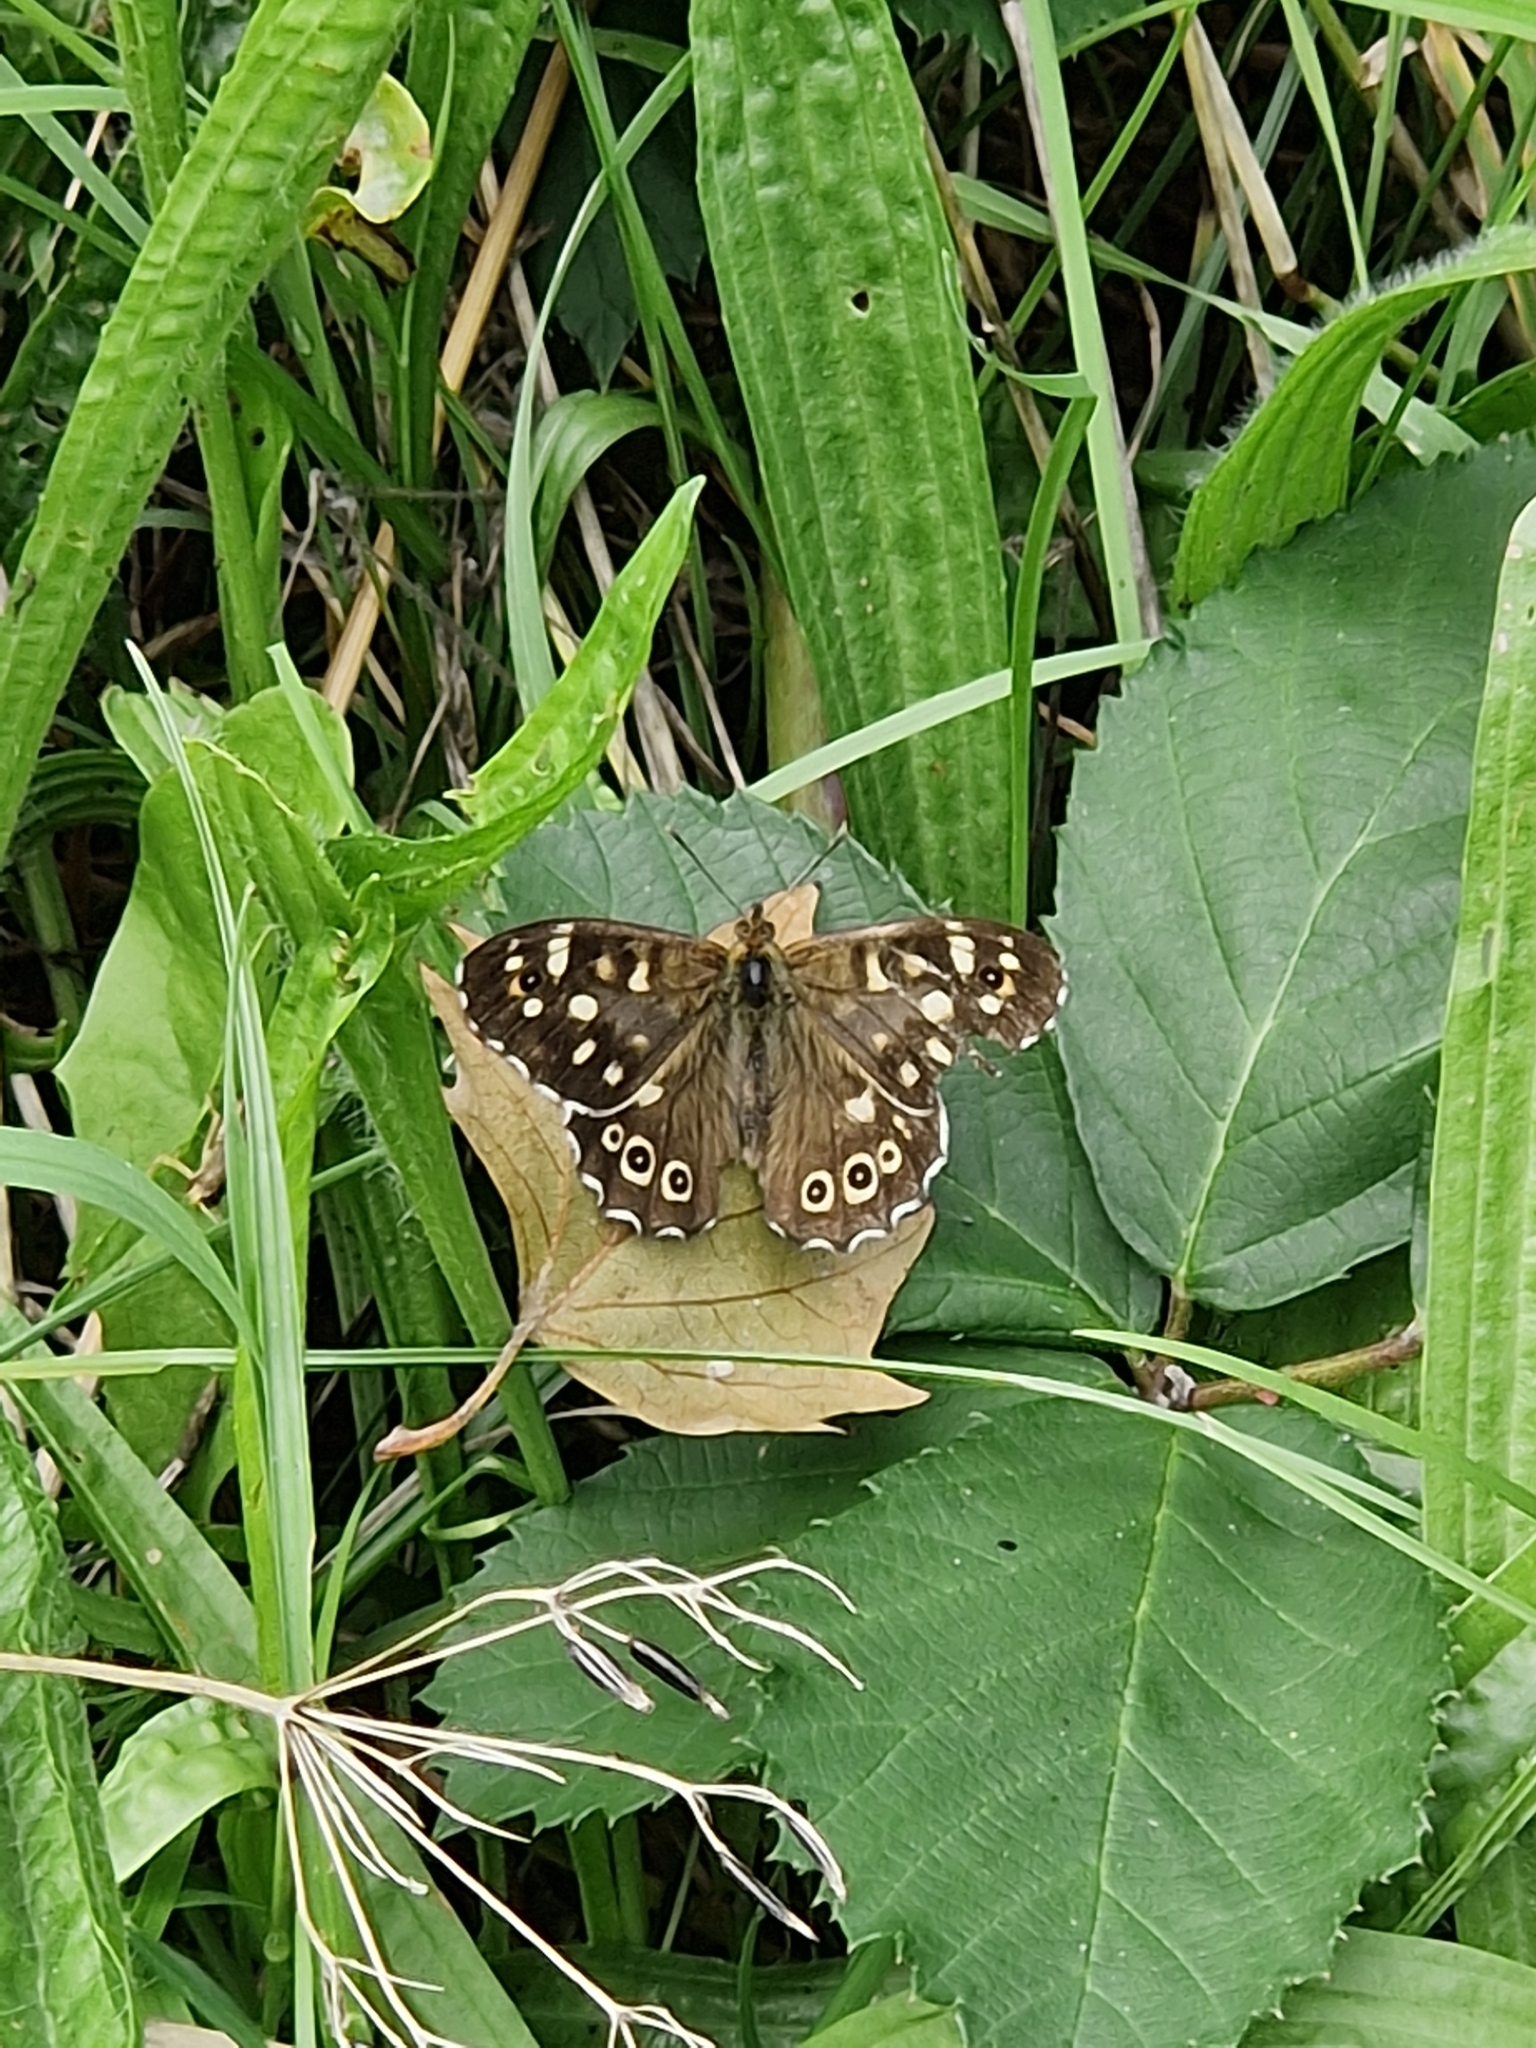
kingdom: Animalia
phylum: Arthropoda
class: Insecta
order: Lepidoptera
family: Nymphalidae
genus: Pararge
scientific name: Pararge aegeria
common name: Speckled wood
